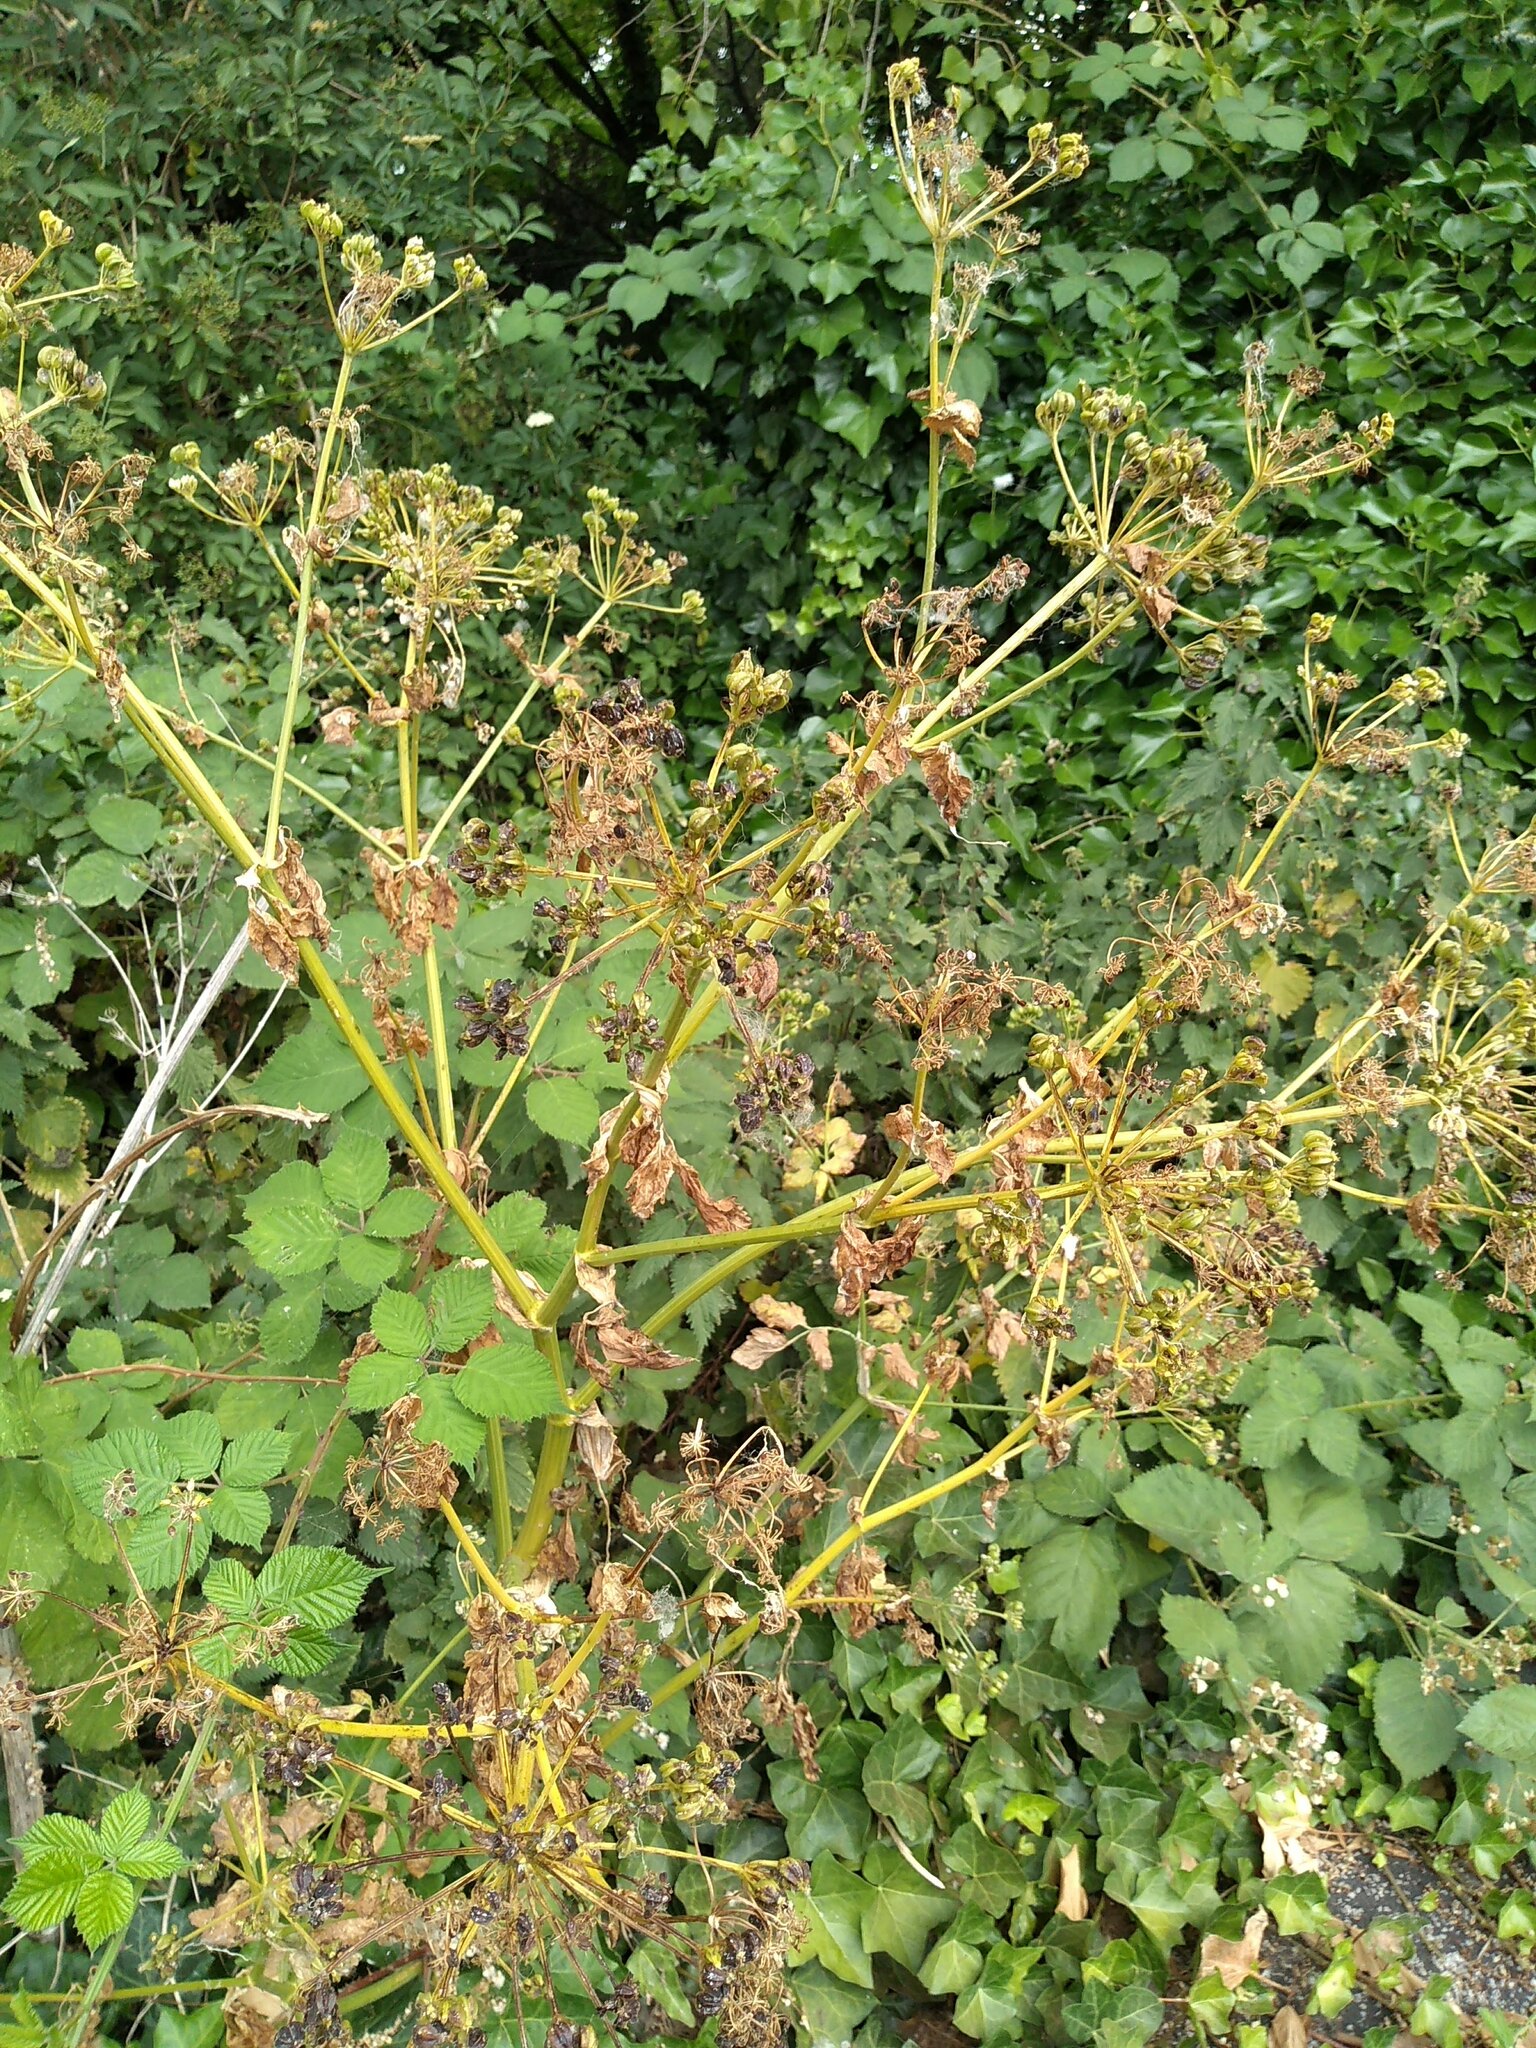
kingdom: Plantae
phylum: Tracheophyta
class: Magnoliopsida
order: Apiales
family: Apiaceae
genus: Smyrnium
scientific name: Smyrnium olusatrum
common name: Alexanders
